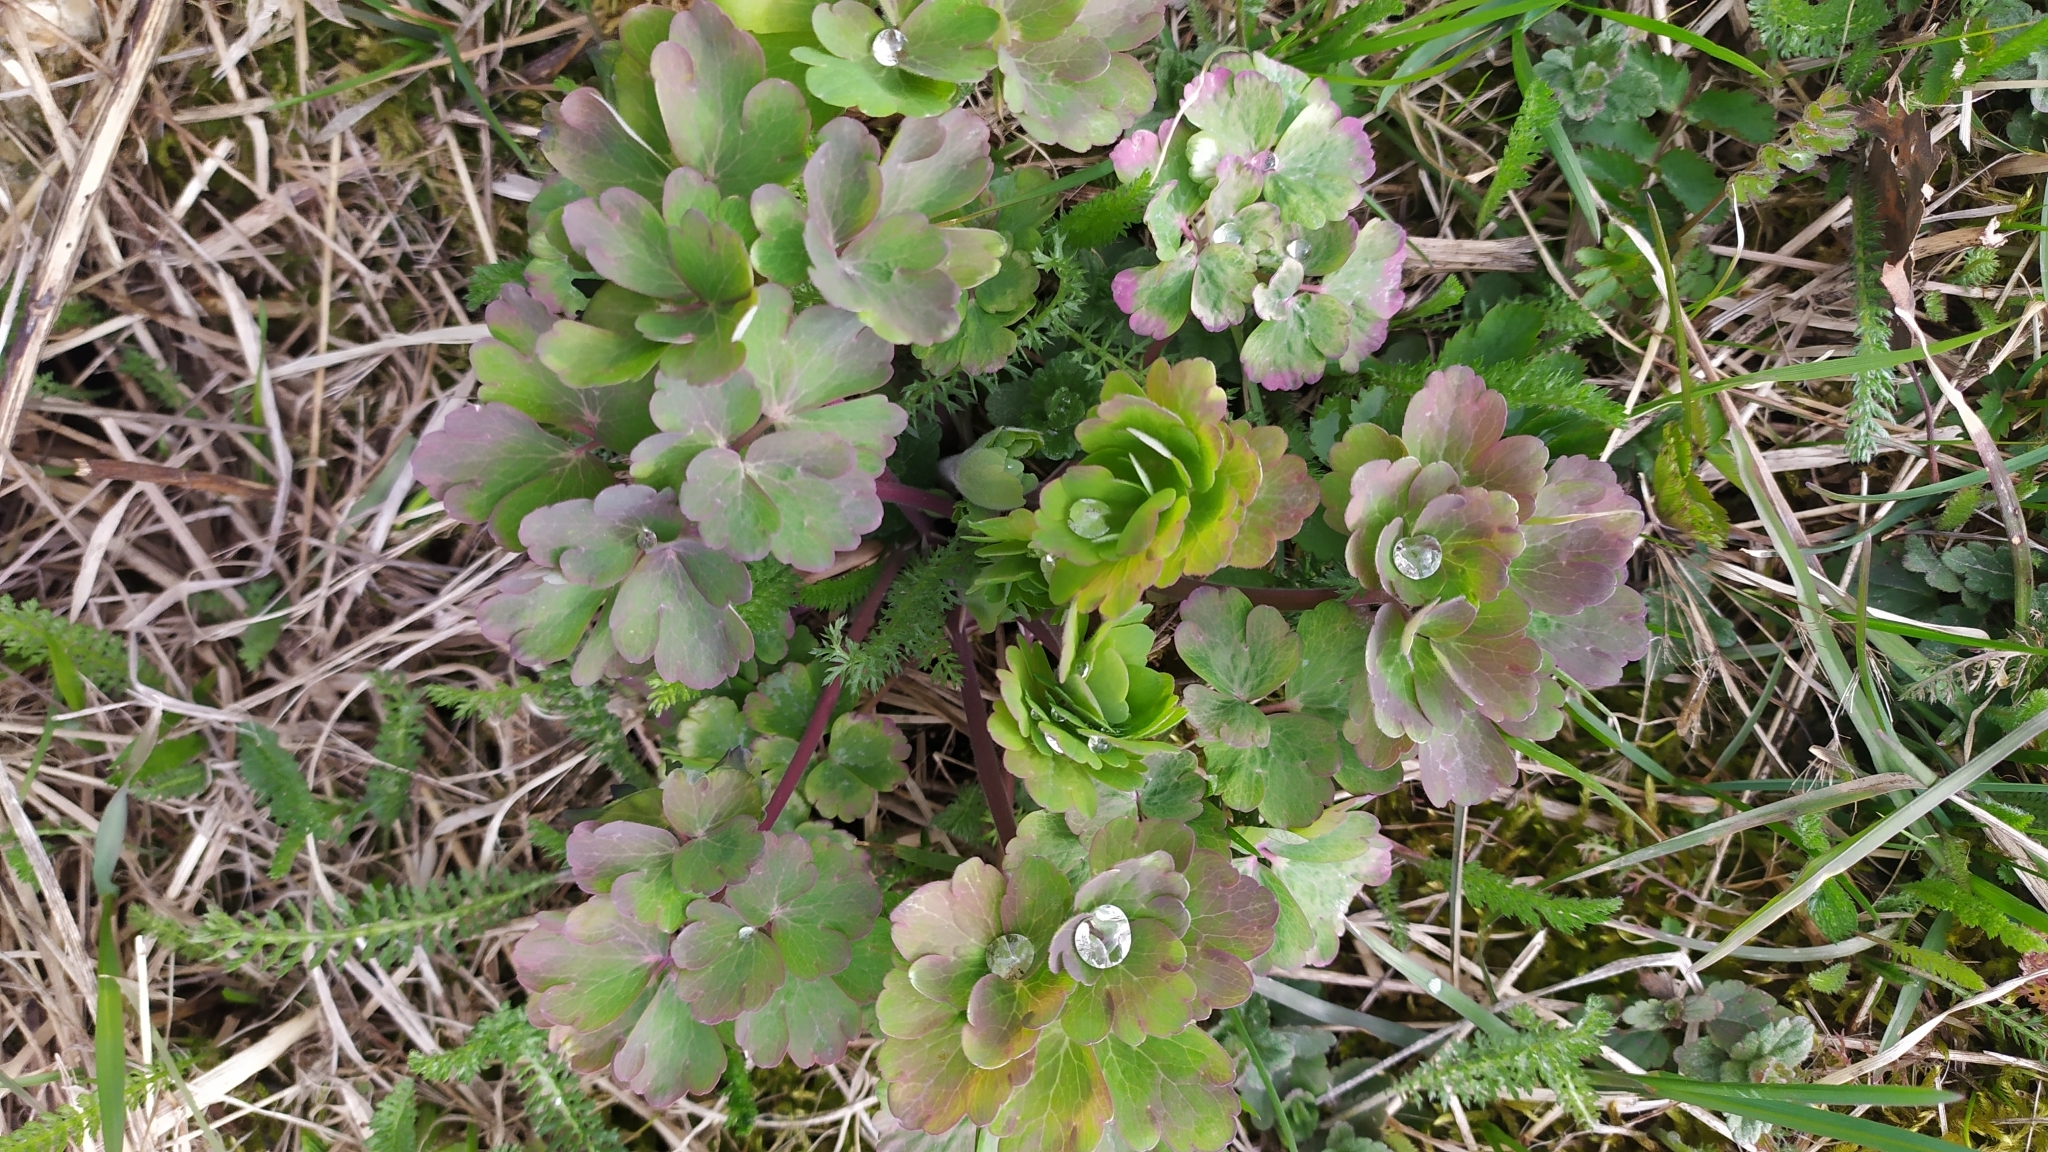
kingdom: Plantae
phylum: Tracheophyta
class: Magnoliopsida
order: Ranunculales
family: Ranunculaceae
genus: Aquilegia
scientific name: Aquilegia vulgaris
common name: Columbine
